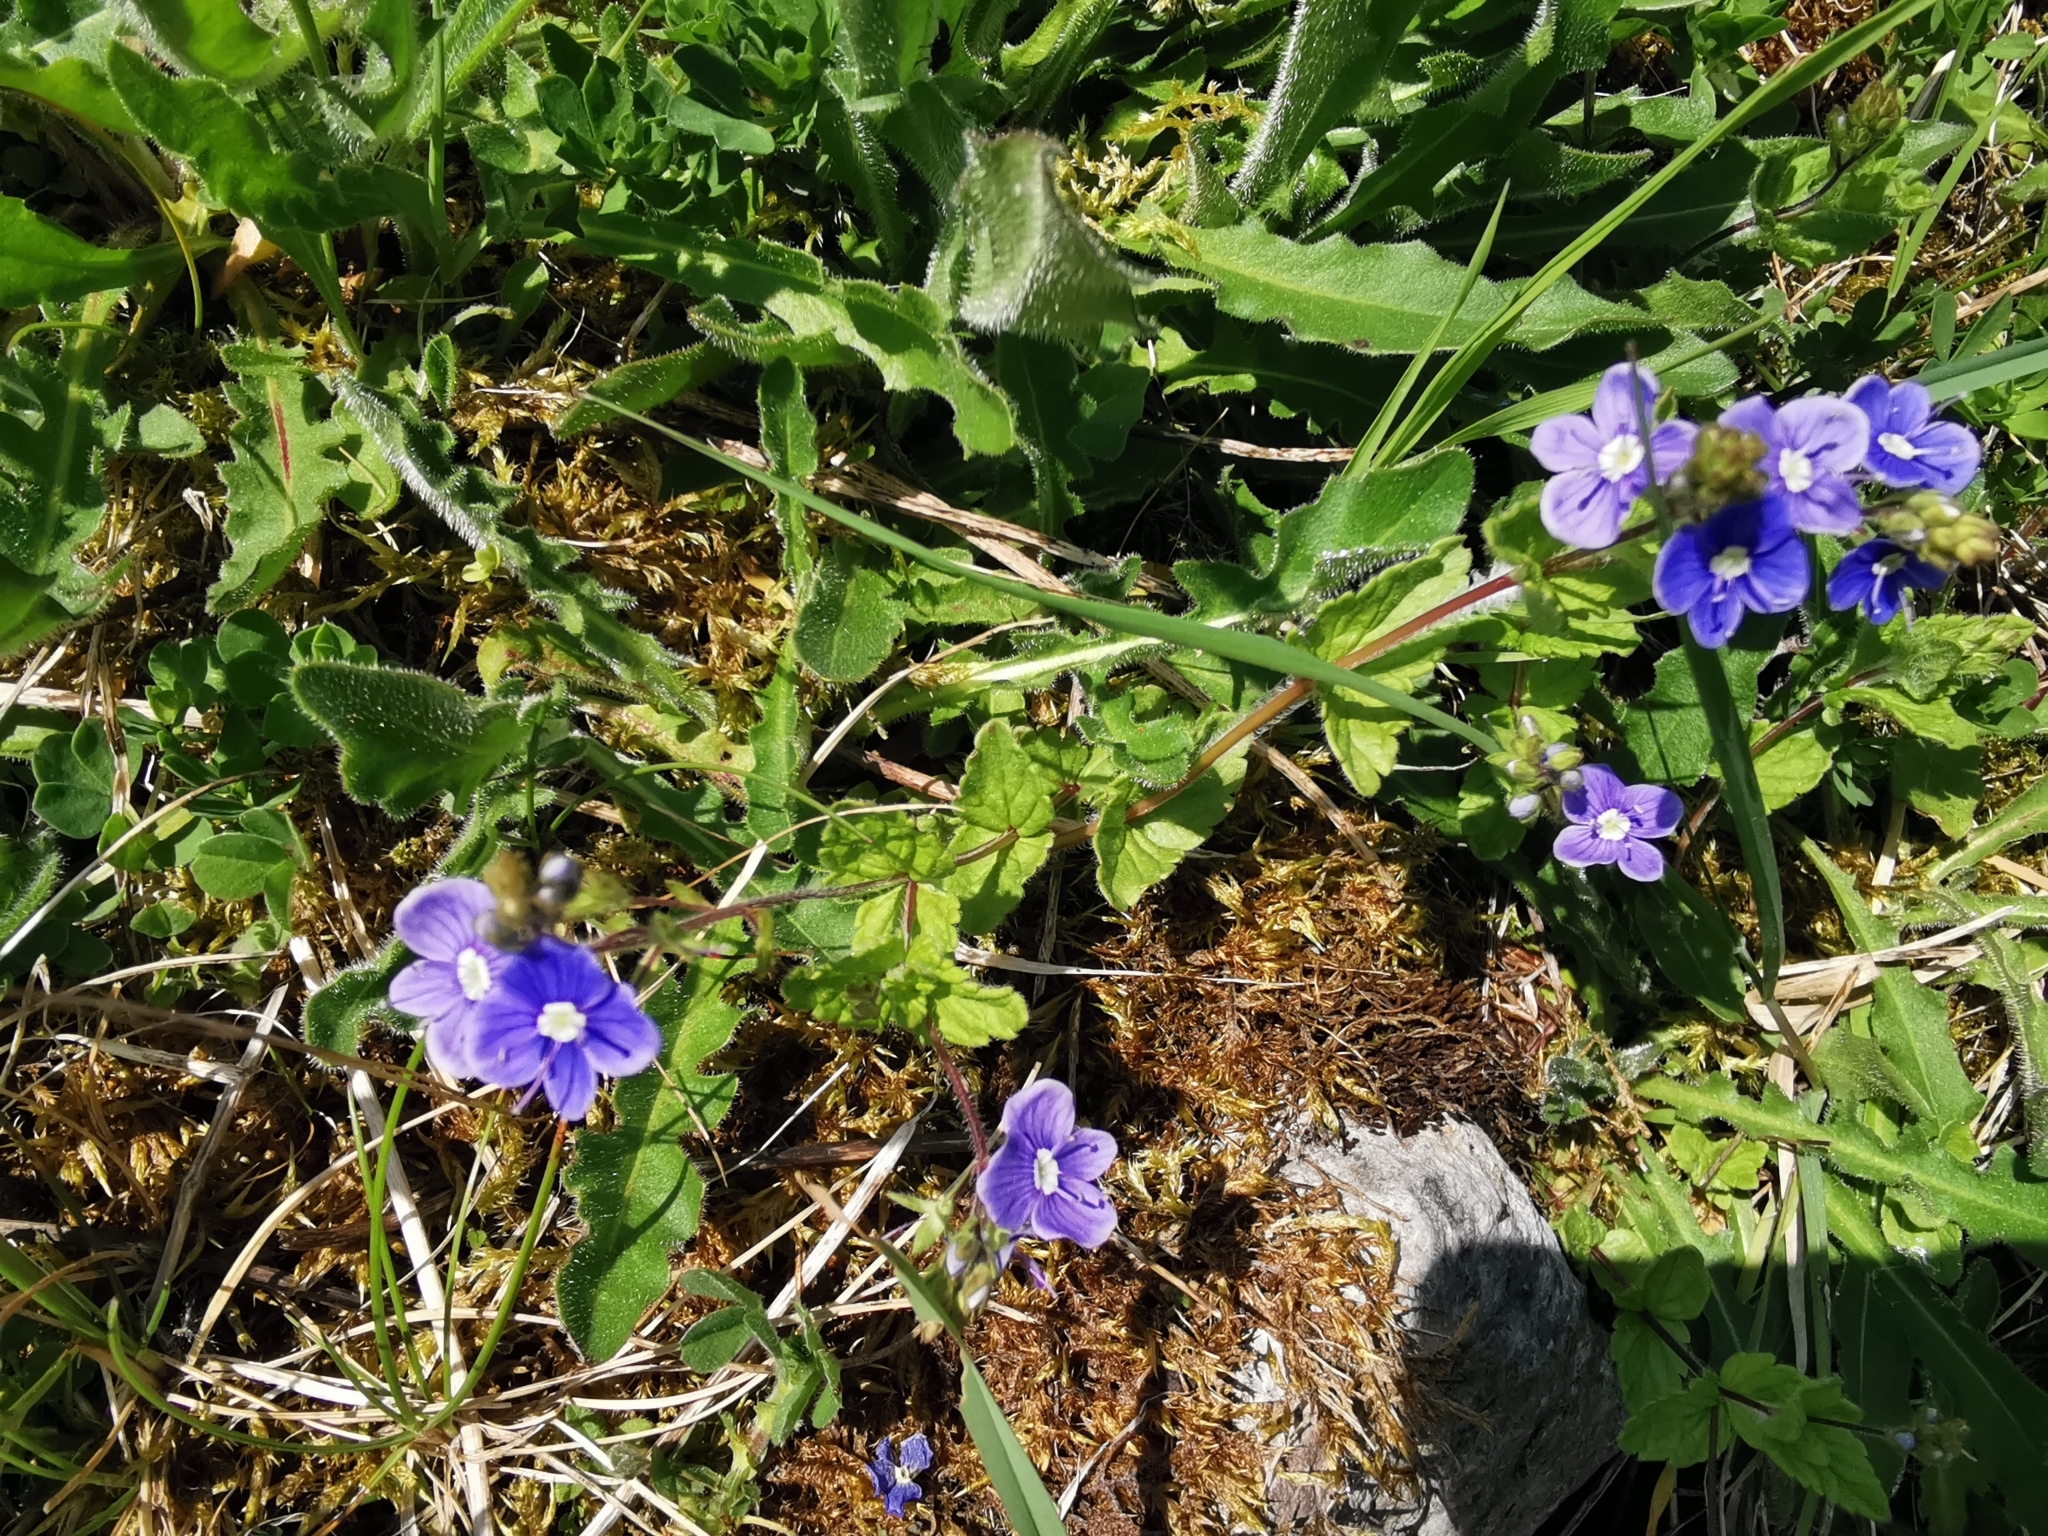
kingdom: Plantae
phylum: Tracheophyta
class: Magnoliopsida
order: Lamiales
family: Plantaginaceae
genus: Veronica
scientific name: Veronica chamaedrys
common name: Germander speedwell
